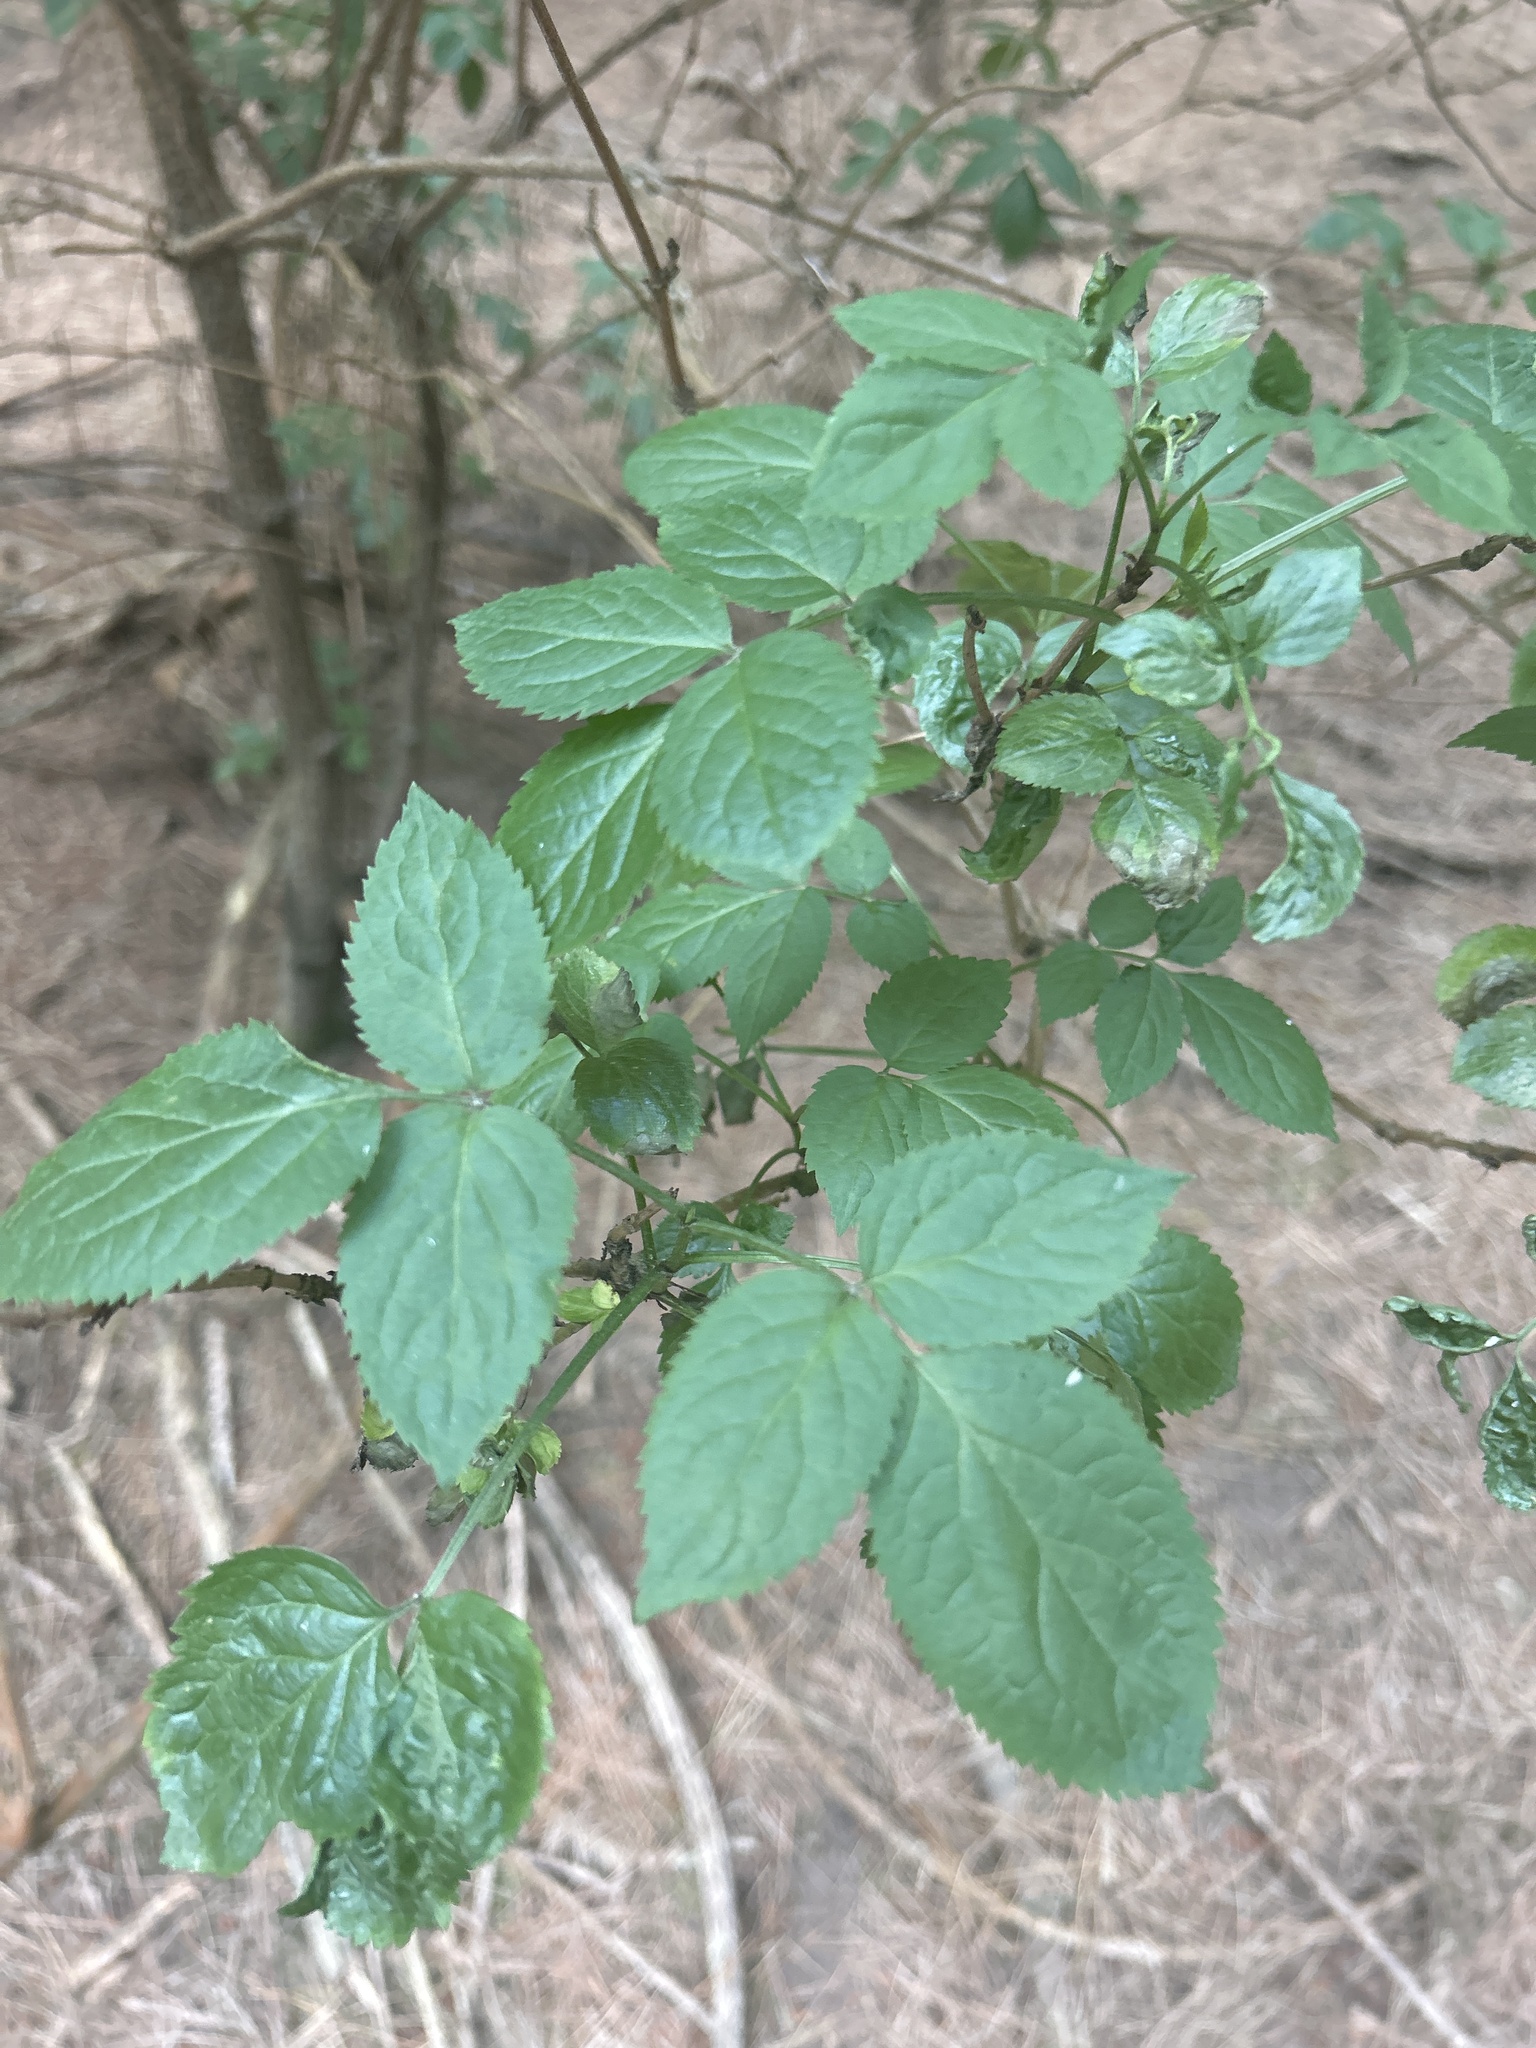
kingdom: Plantae
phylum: Tracheophyta
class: Magnoliopsida
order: Dipsacales
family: Viburnaceae
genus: Sambucus
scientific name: Sambucus nigra
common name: Elder
